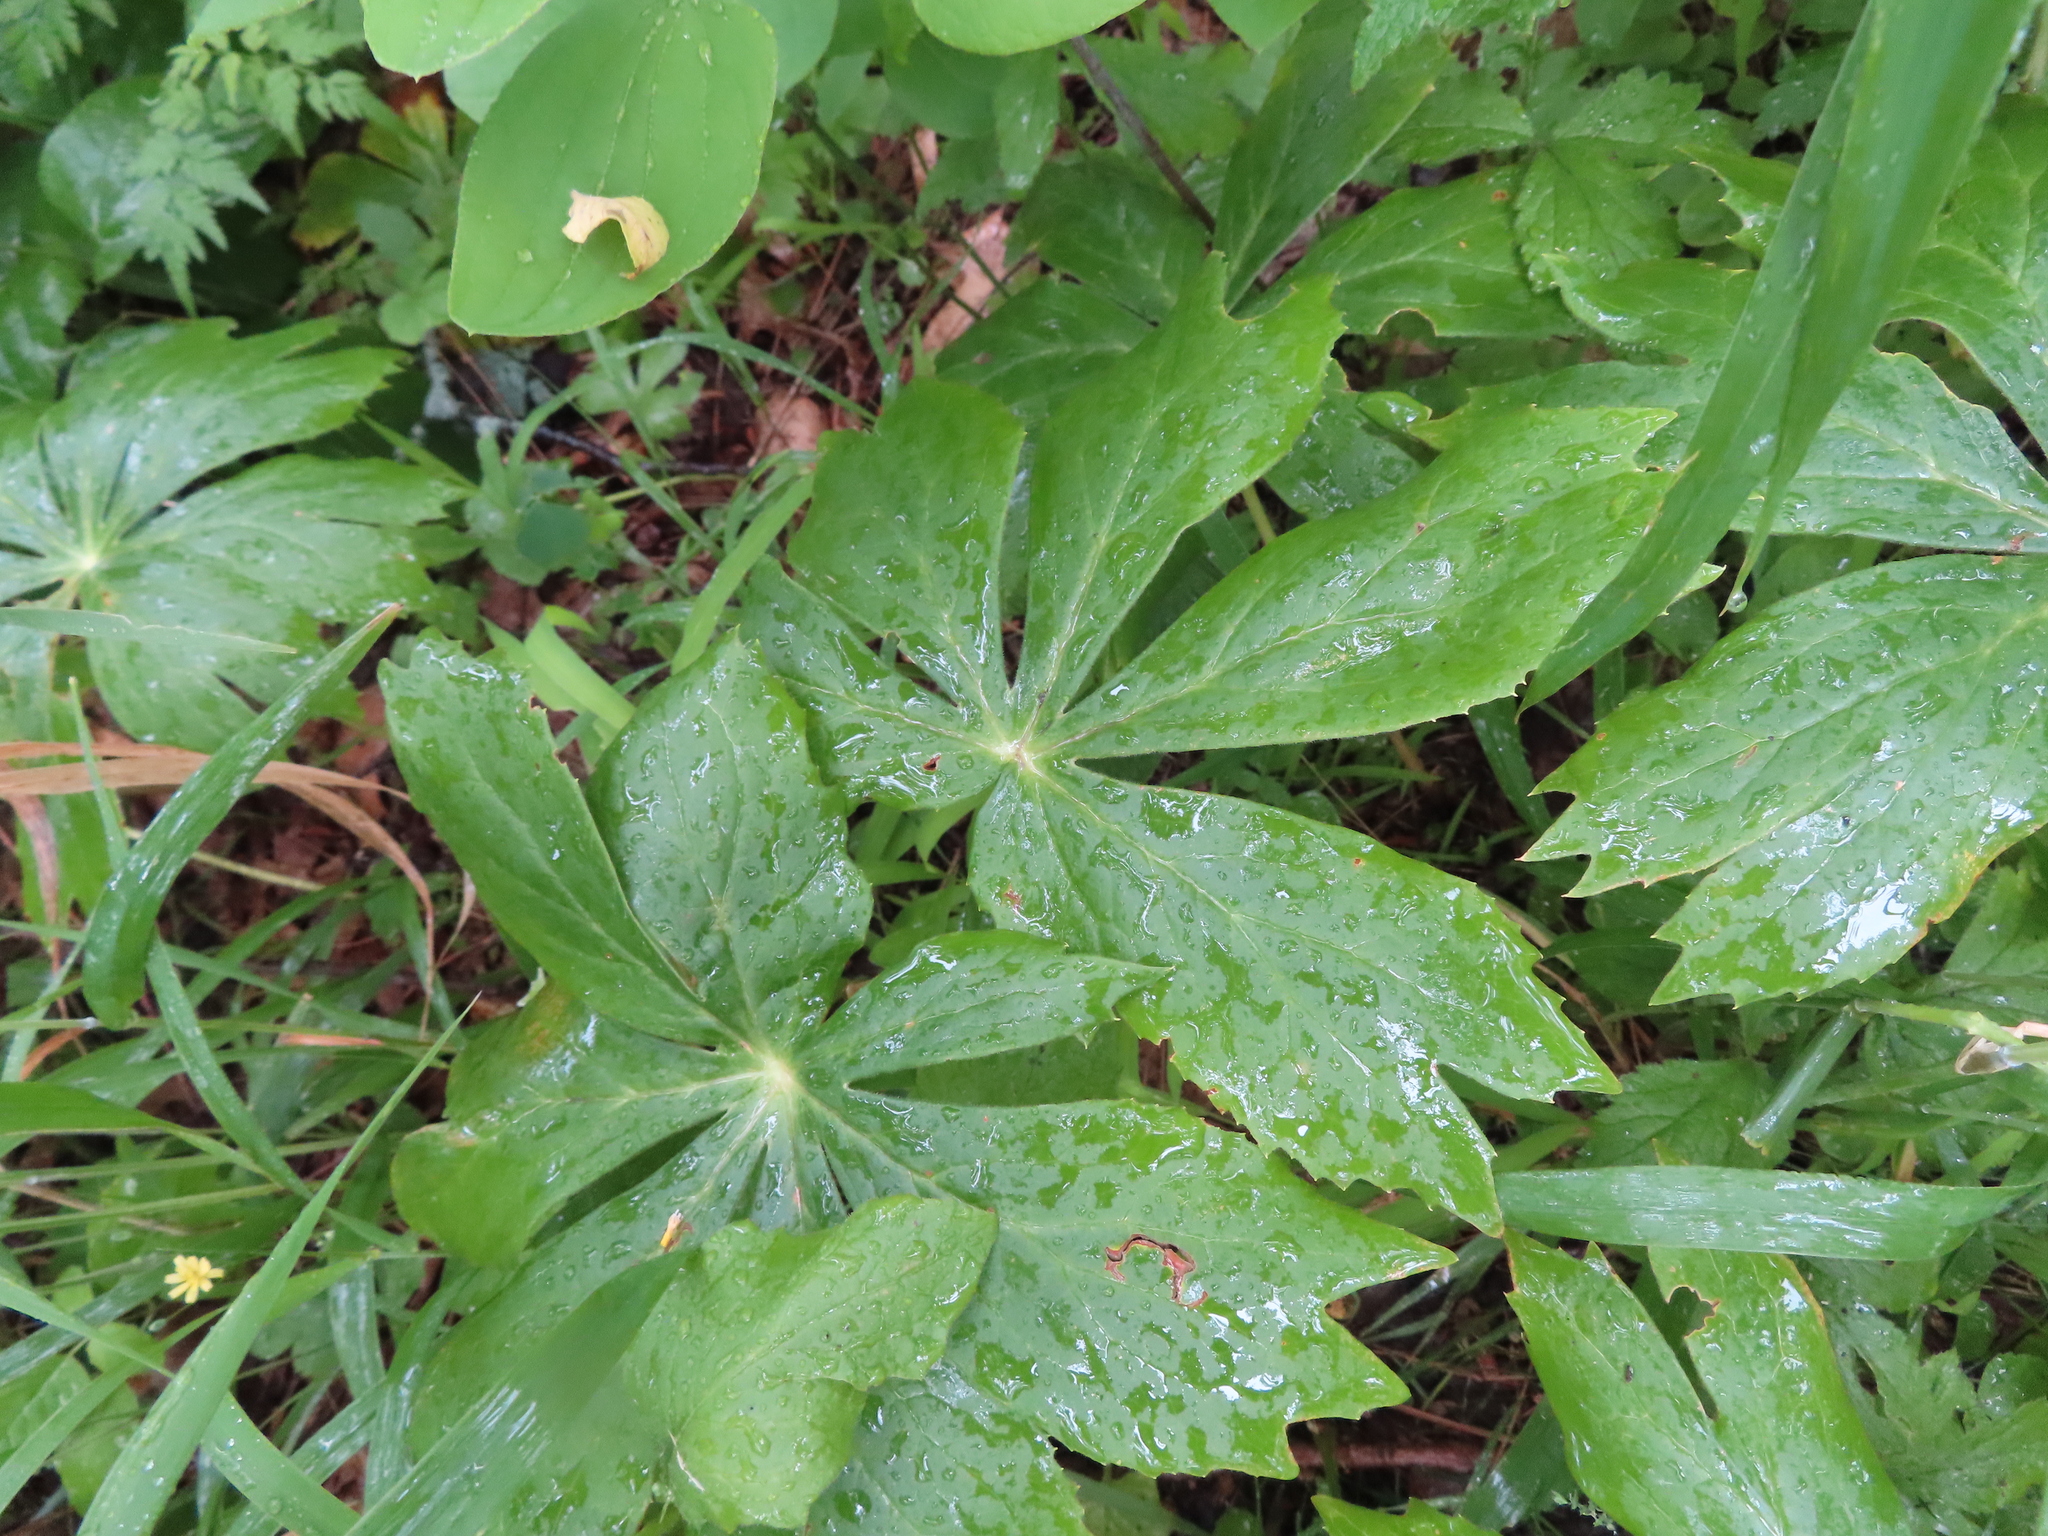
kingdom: Plantae
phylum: Tracheophyta
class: Magnoliopsida
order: Ranunculales
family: Berberidaceae
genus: Podophyllum
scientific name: Podophyllum peltatum
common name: Wild mandrake
